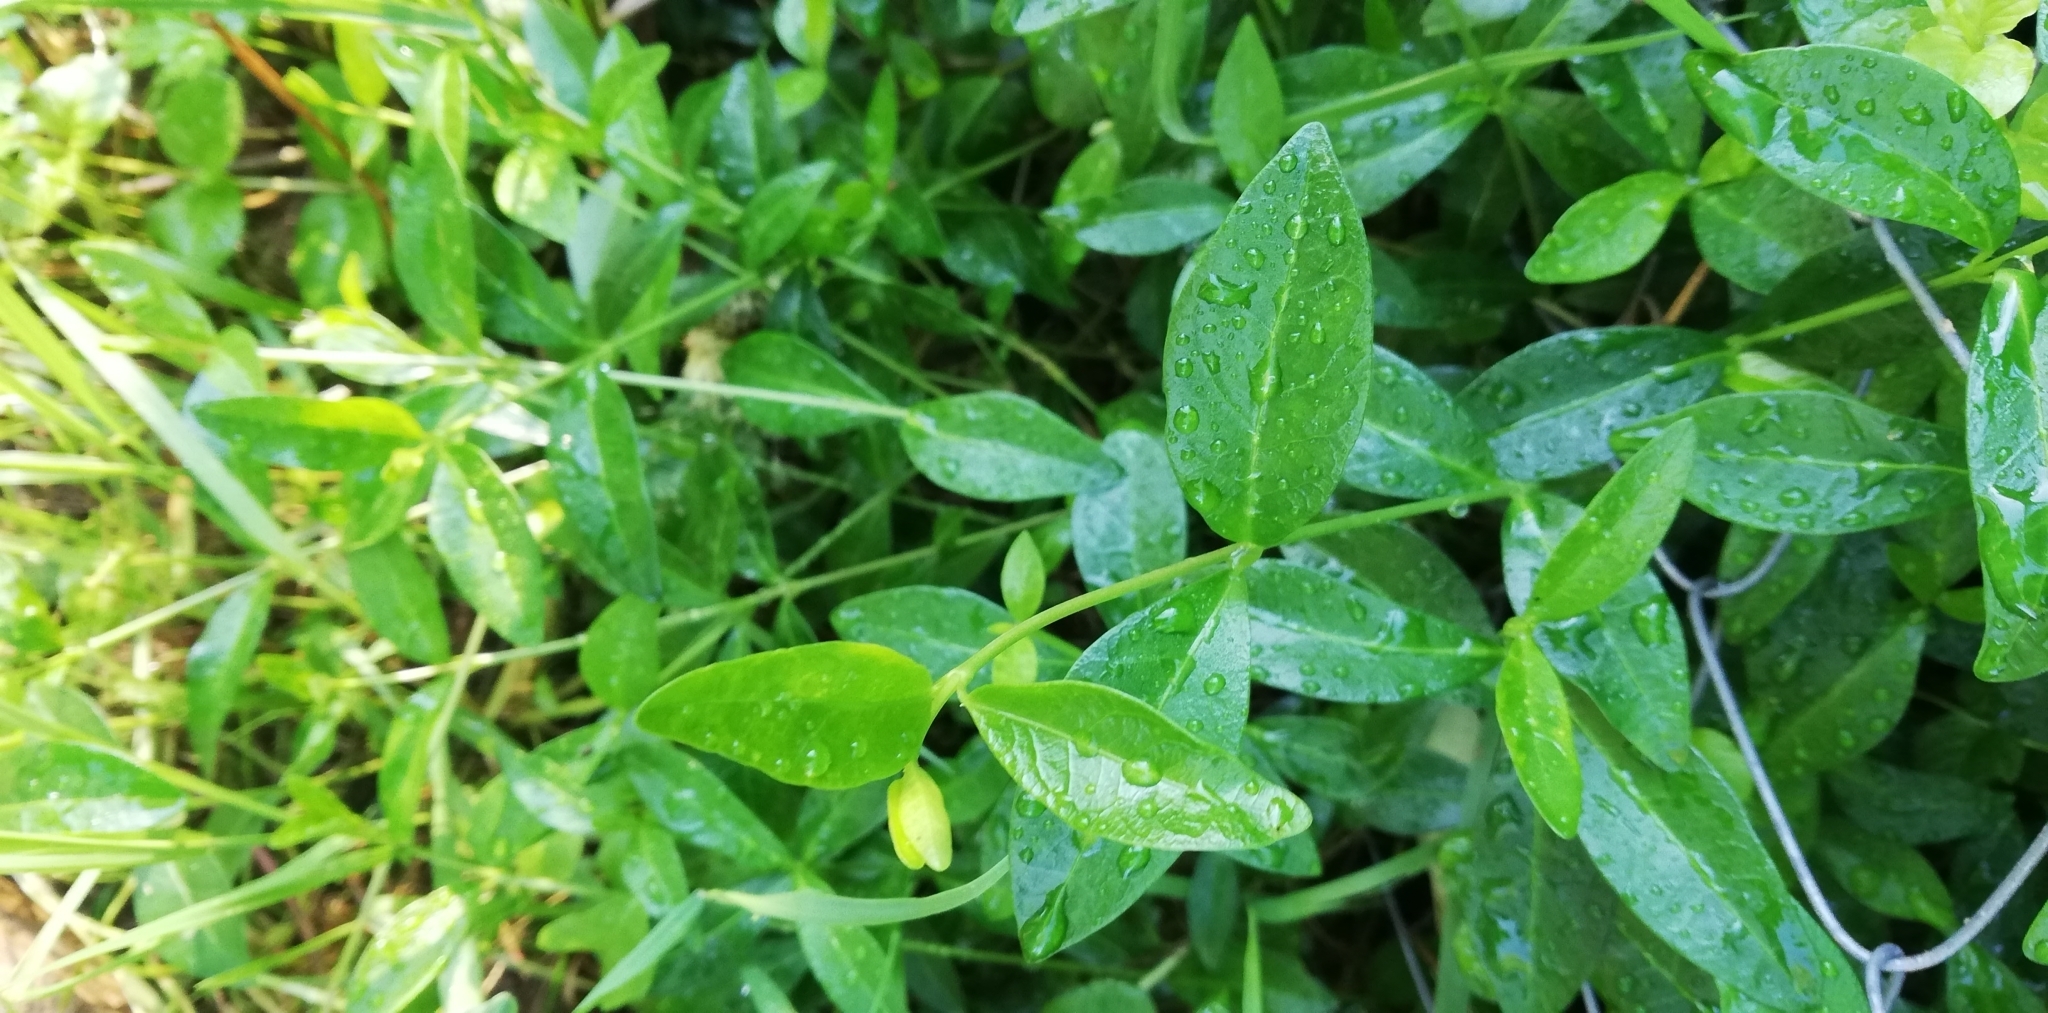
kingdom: Plantae
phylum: Tracheophyta
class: Magnoliopsida
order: Gentianales
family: Apocynaceae
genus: Vinca
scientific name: Vinca minor
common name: Lesser periwinkle
